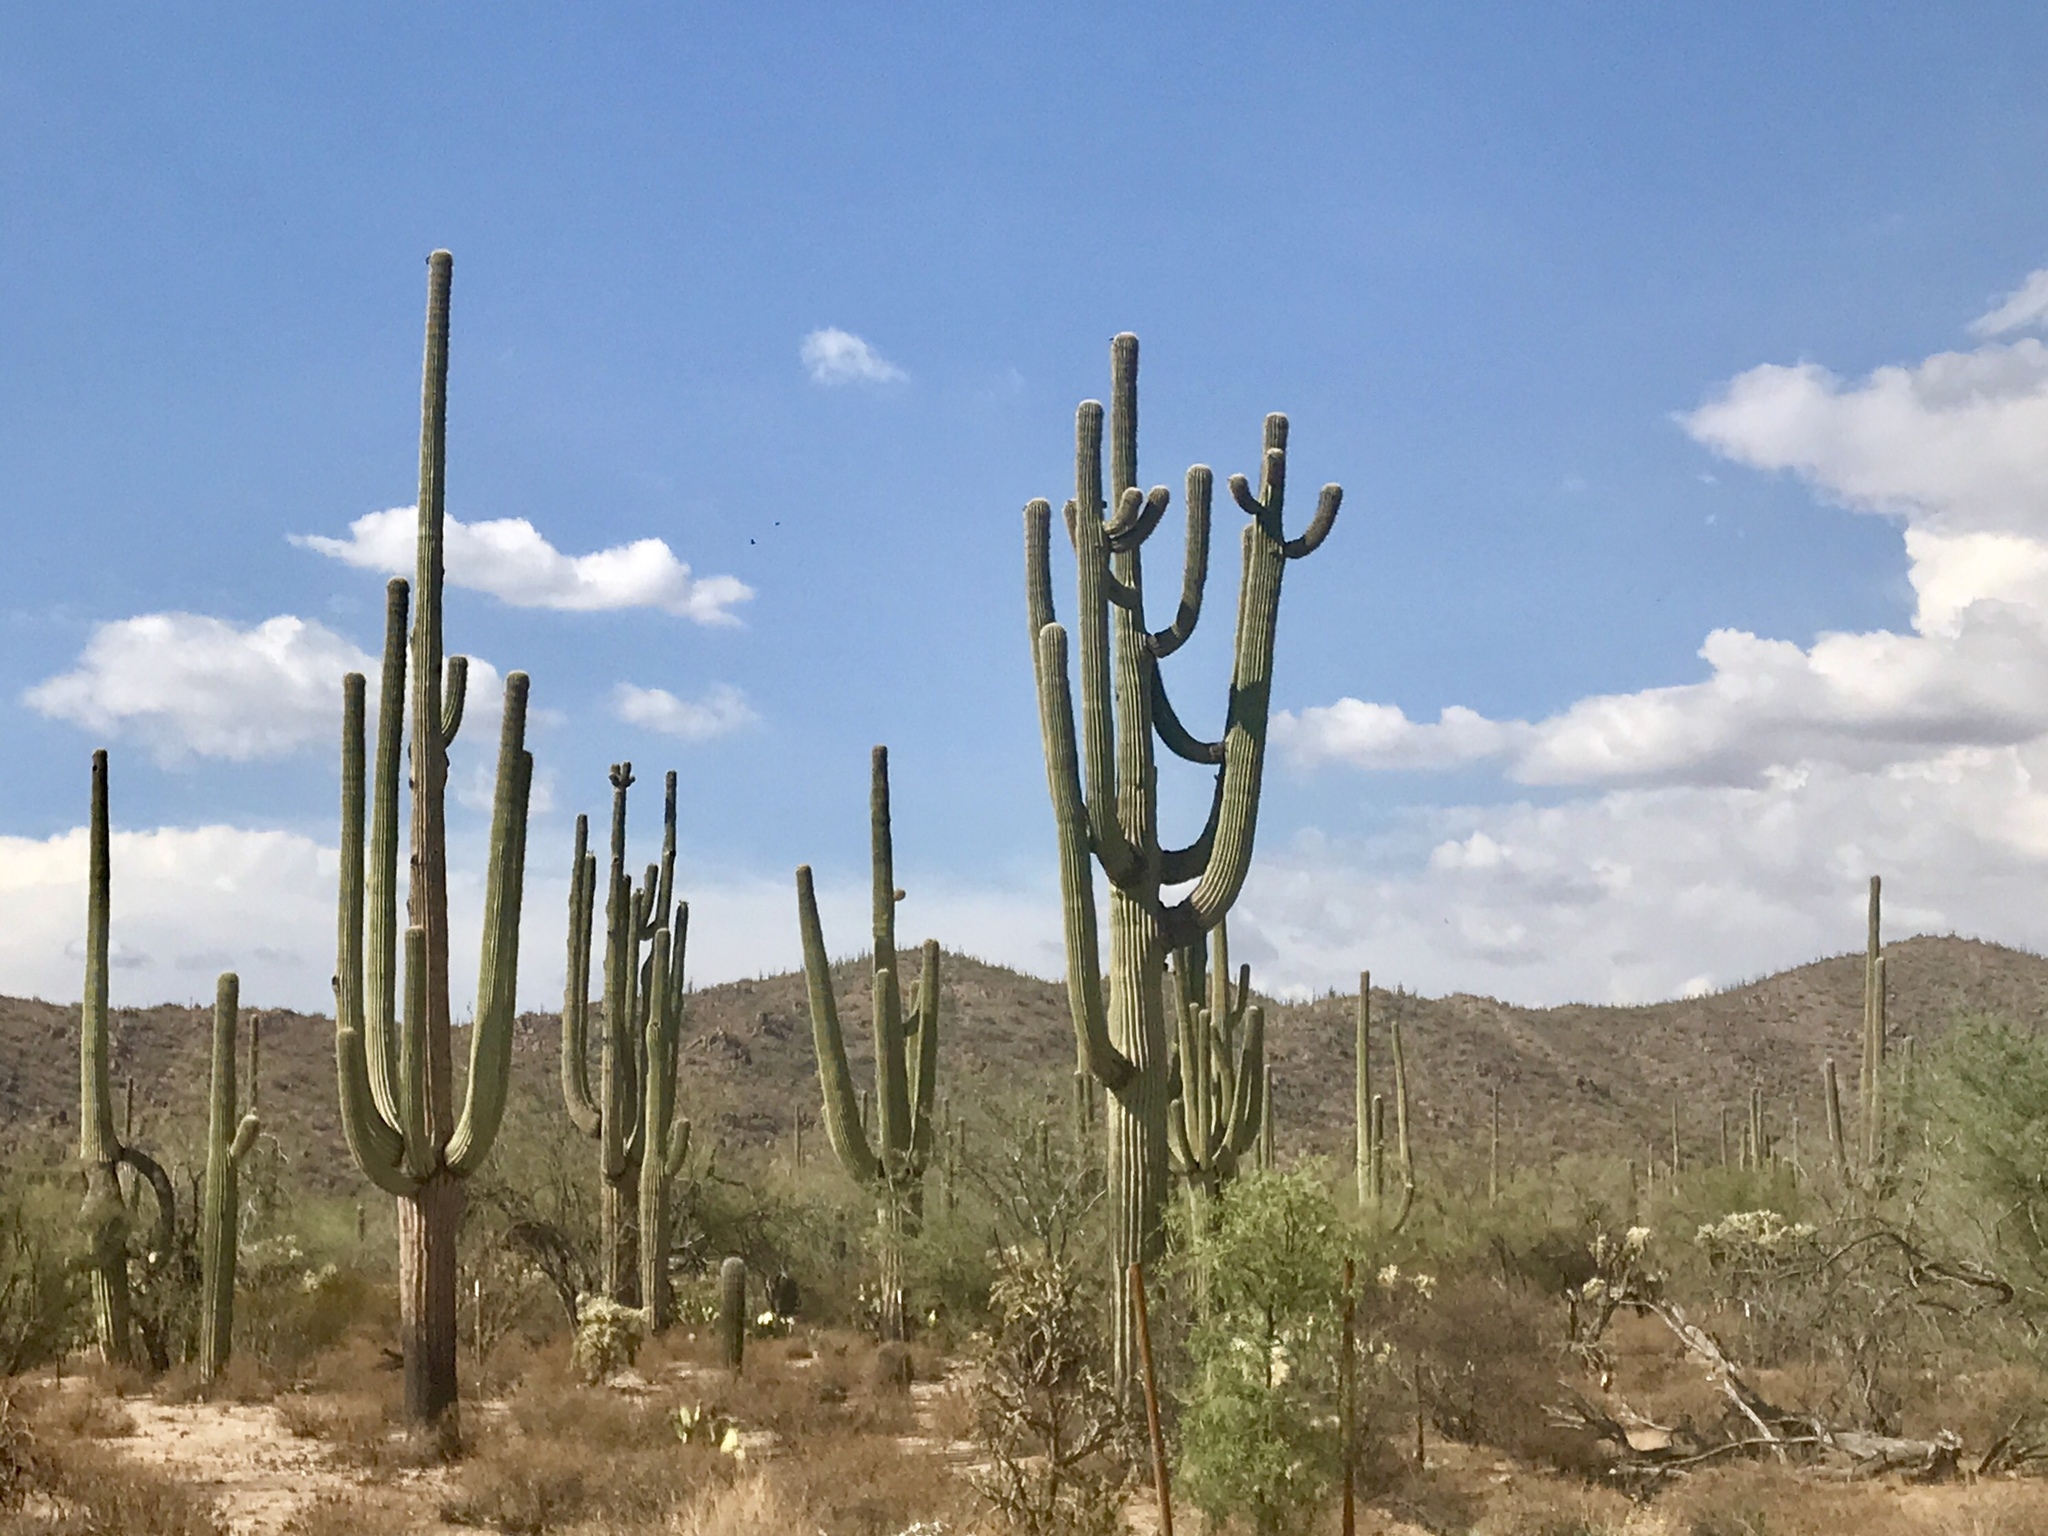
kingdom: Plantae
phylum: Tracheophyta
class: Magnoliopsida
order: Caryophyllales
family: Cactaceae
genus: Carnegiea
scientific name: Carnegiea gigantea
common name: Saguaro
